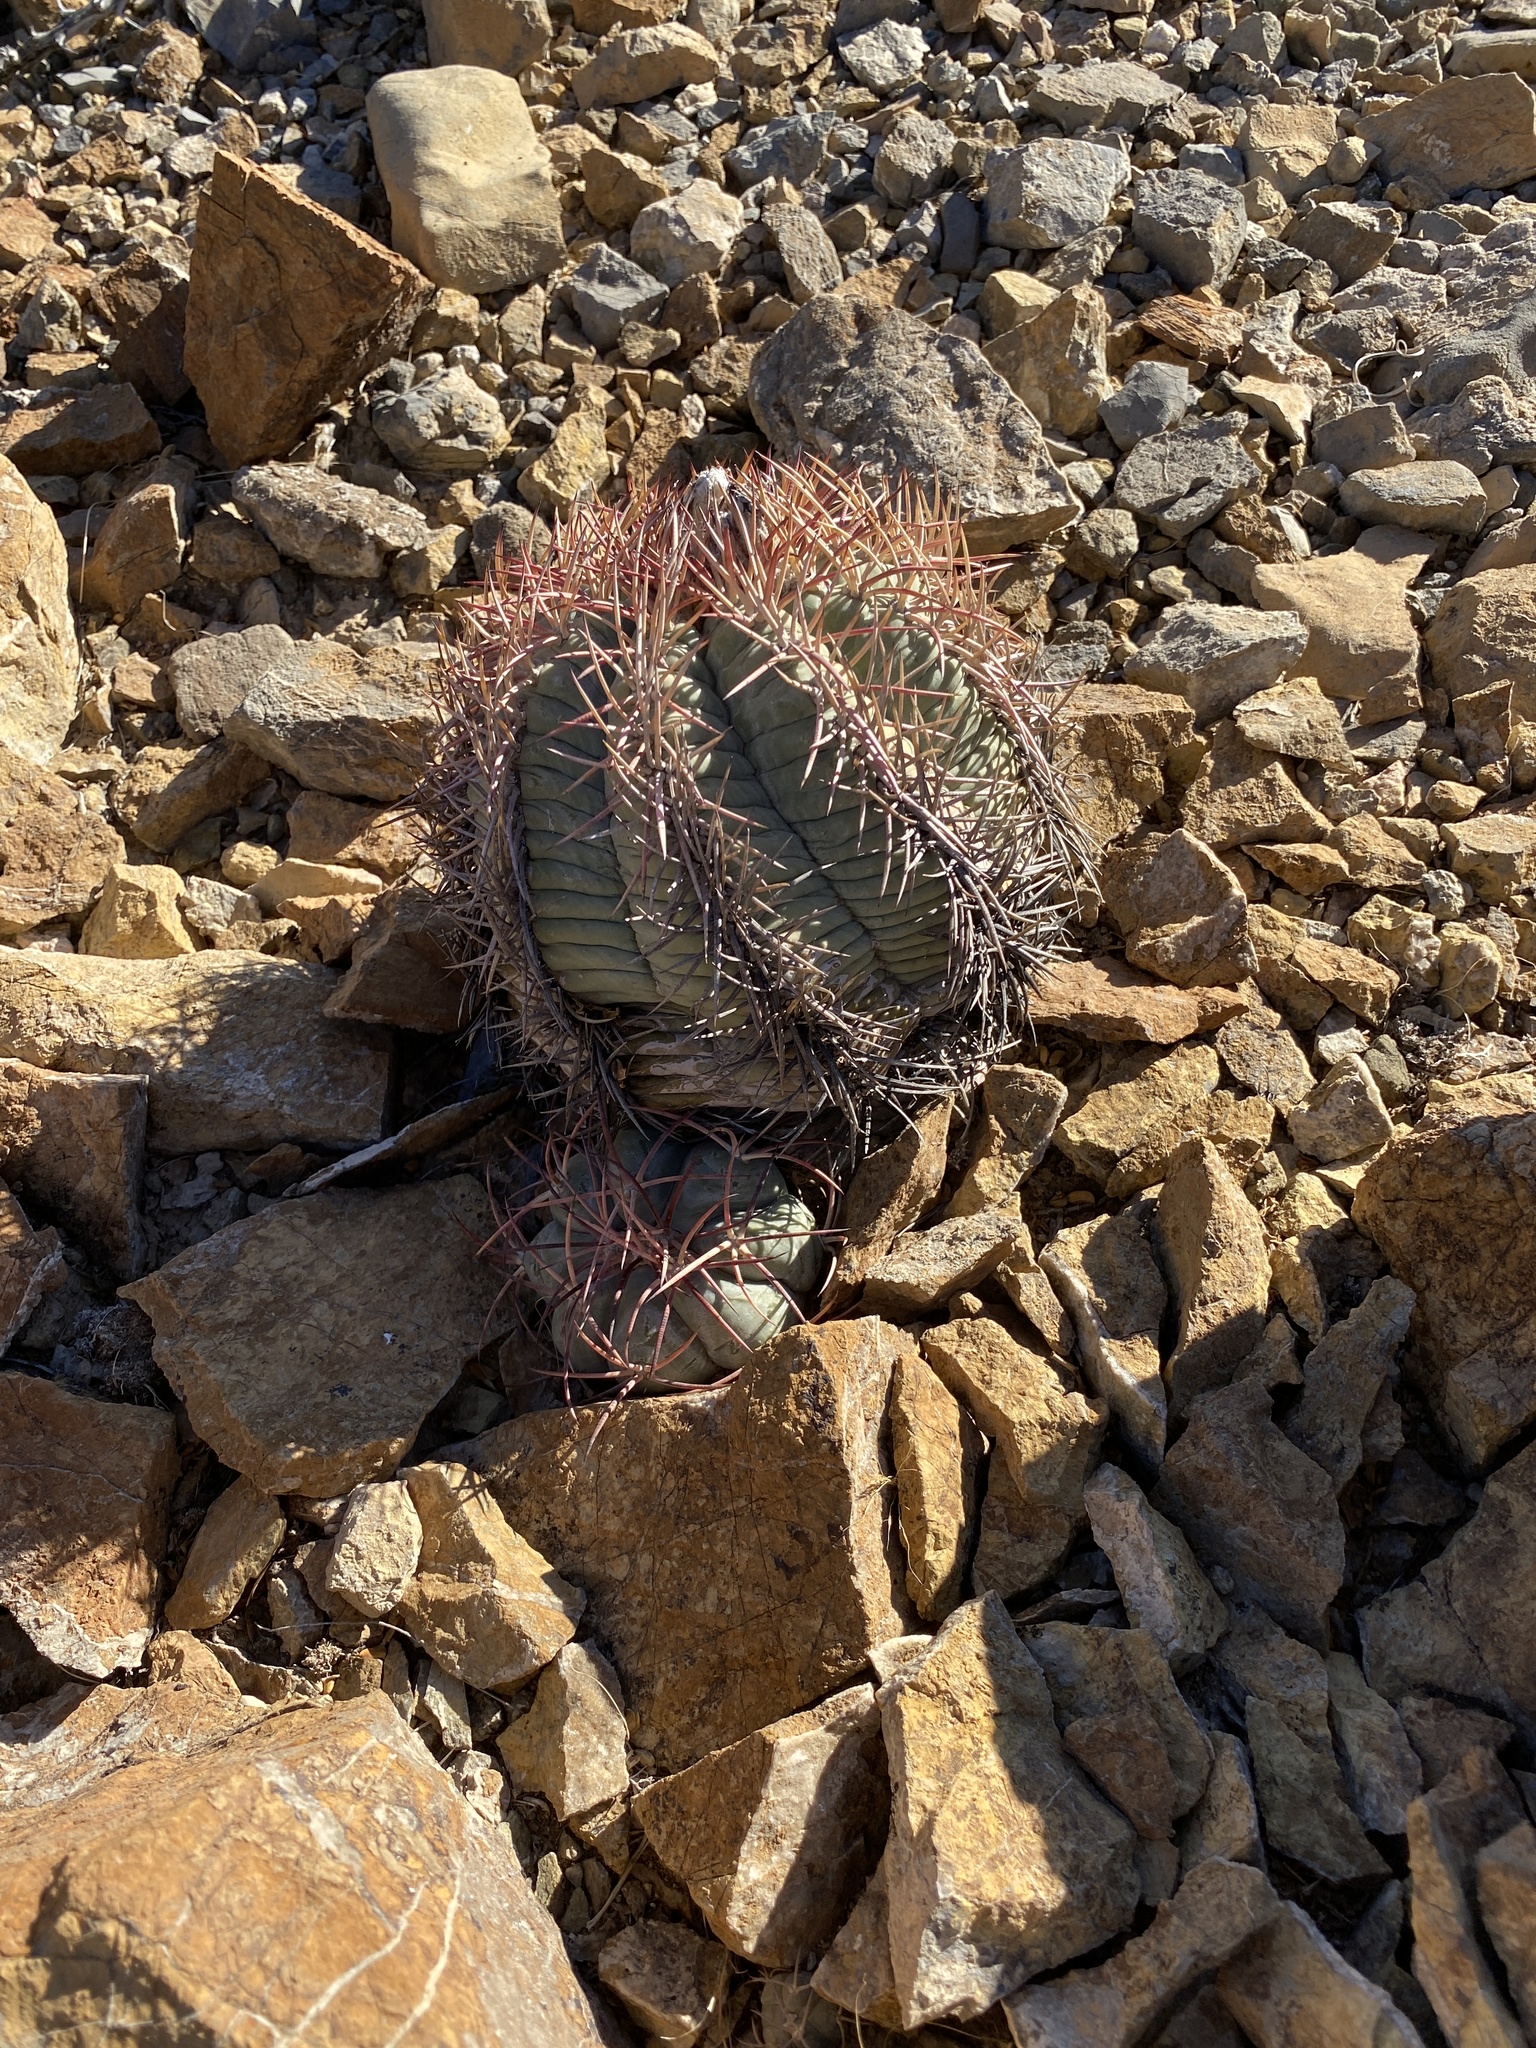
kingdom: Plantae
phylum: Tracheophyta
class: Magnoliopsida
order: Caryophyllales
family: Cactaceae
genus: Echinocactus
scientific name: Echinocactus horizonthalonius
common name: Devilshead
